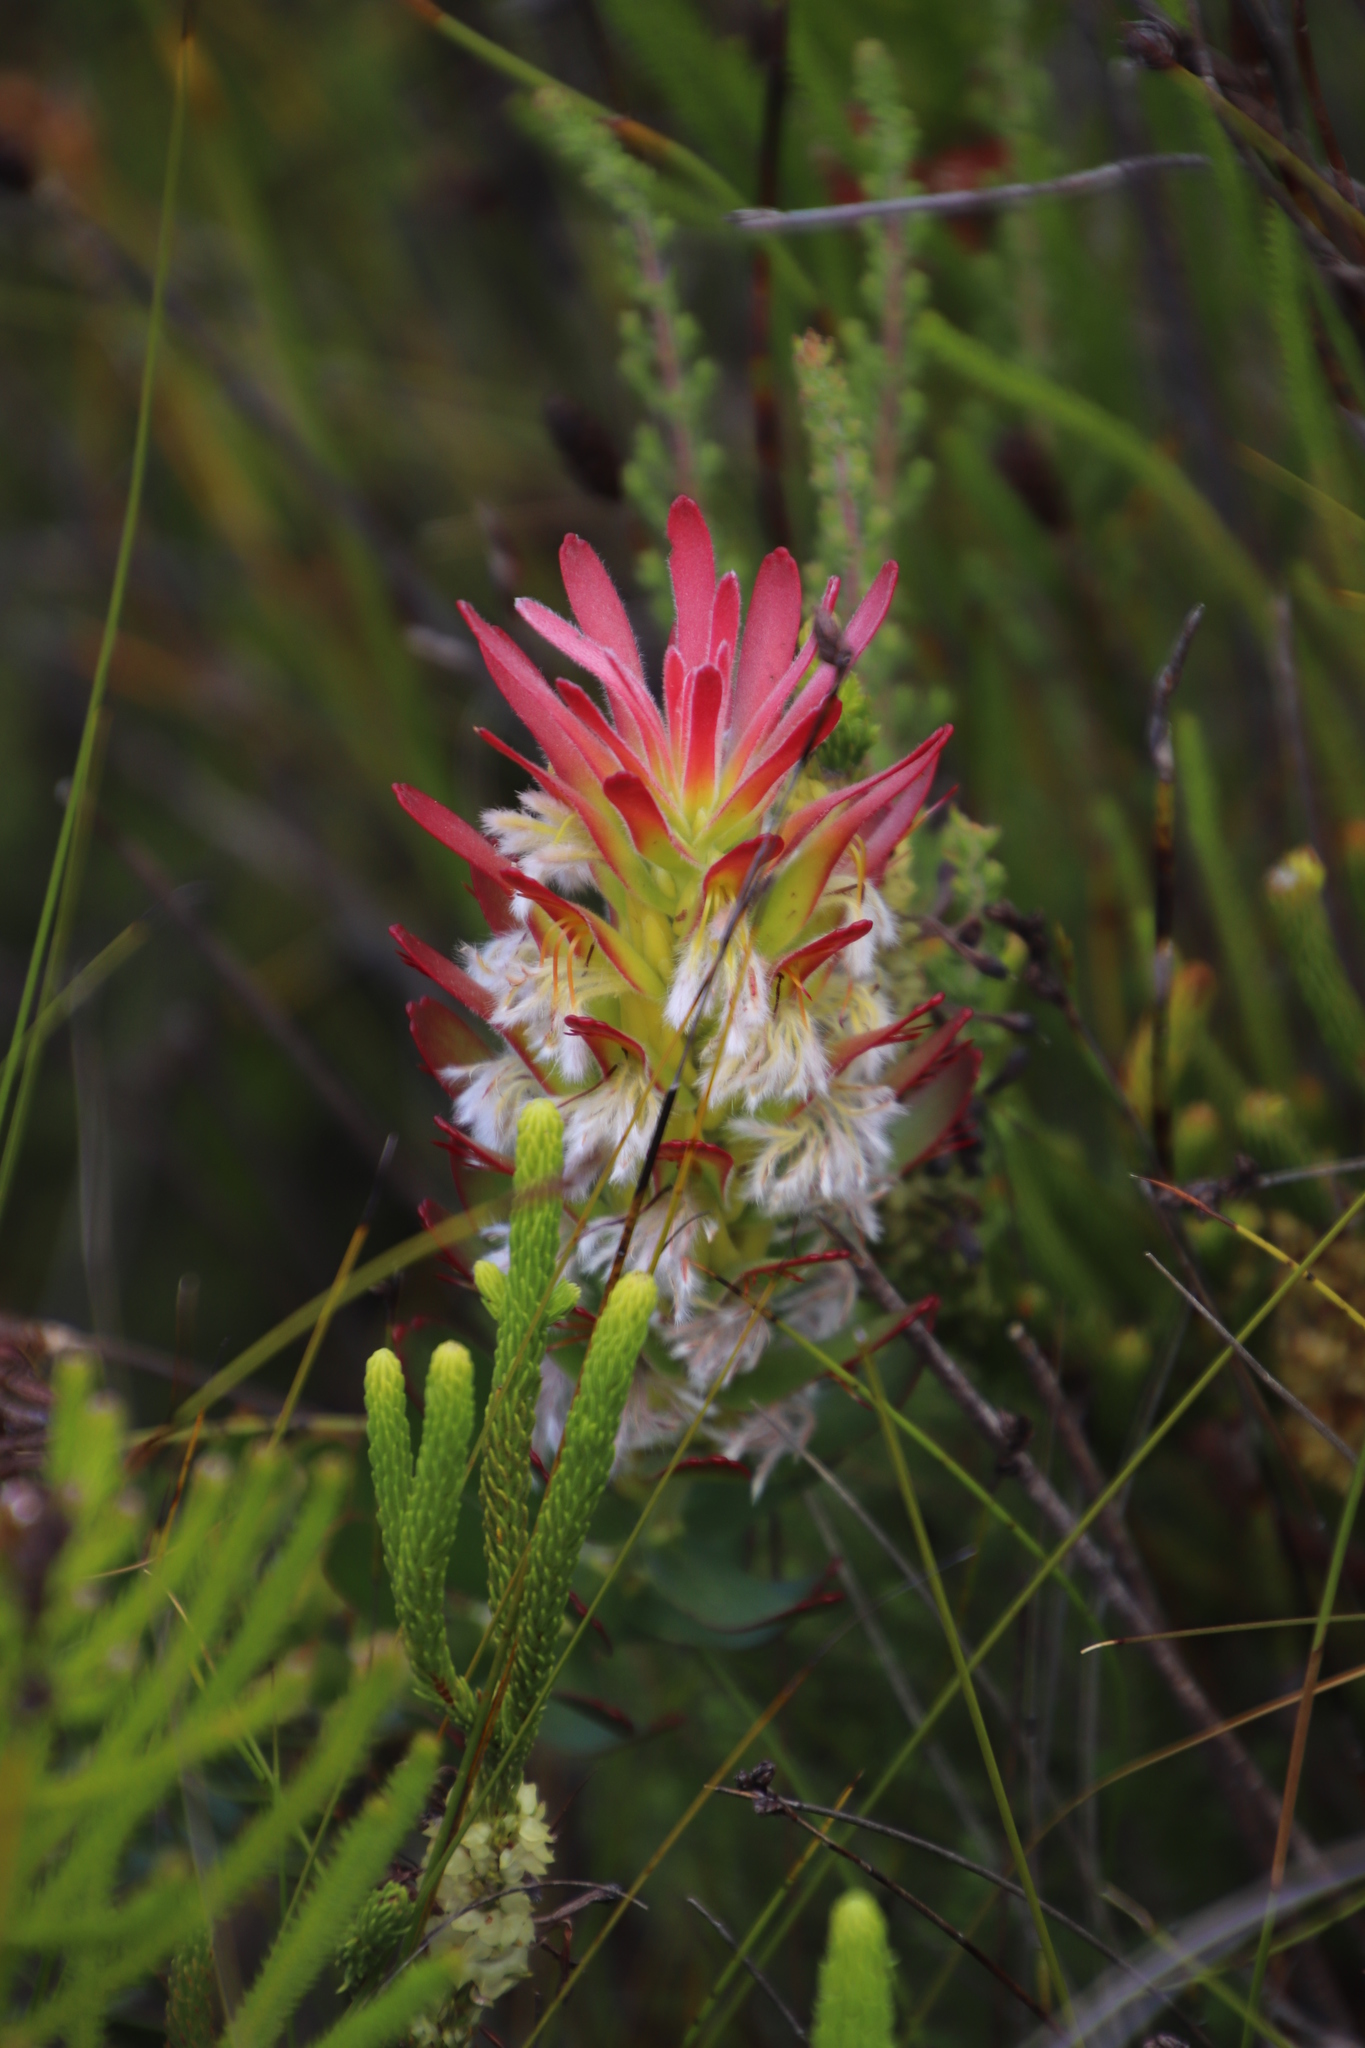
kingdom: Plantae
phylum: Tracheophyta
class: Magnoliopsida
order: Proteales
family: Proteaceae
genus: Mimetes
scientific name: Mimetes cucullatus
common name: Common pagoda
